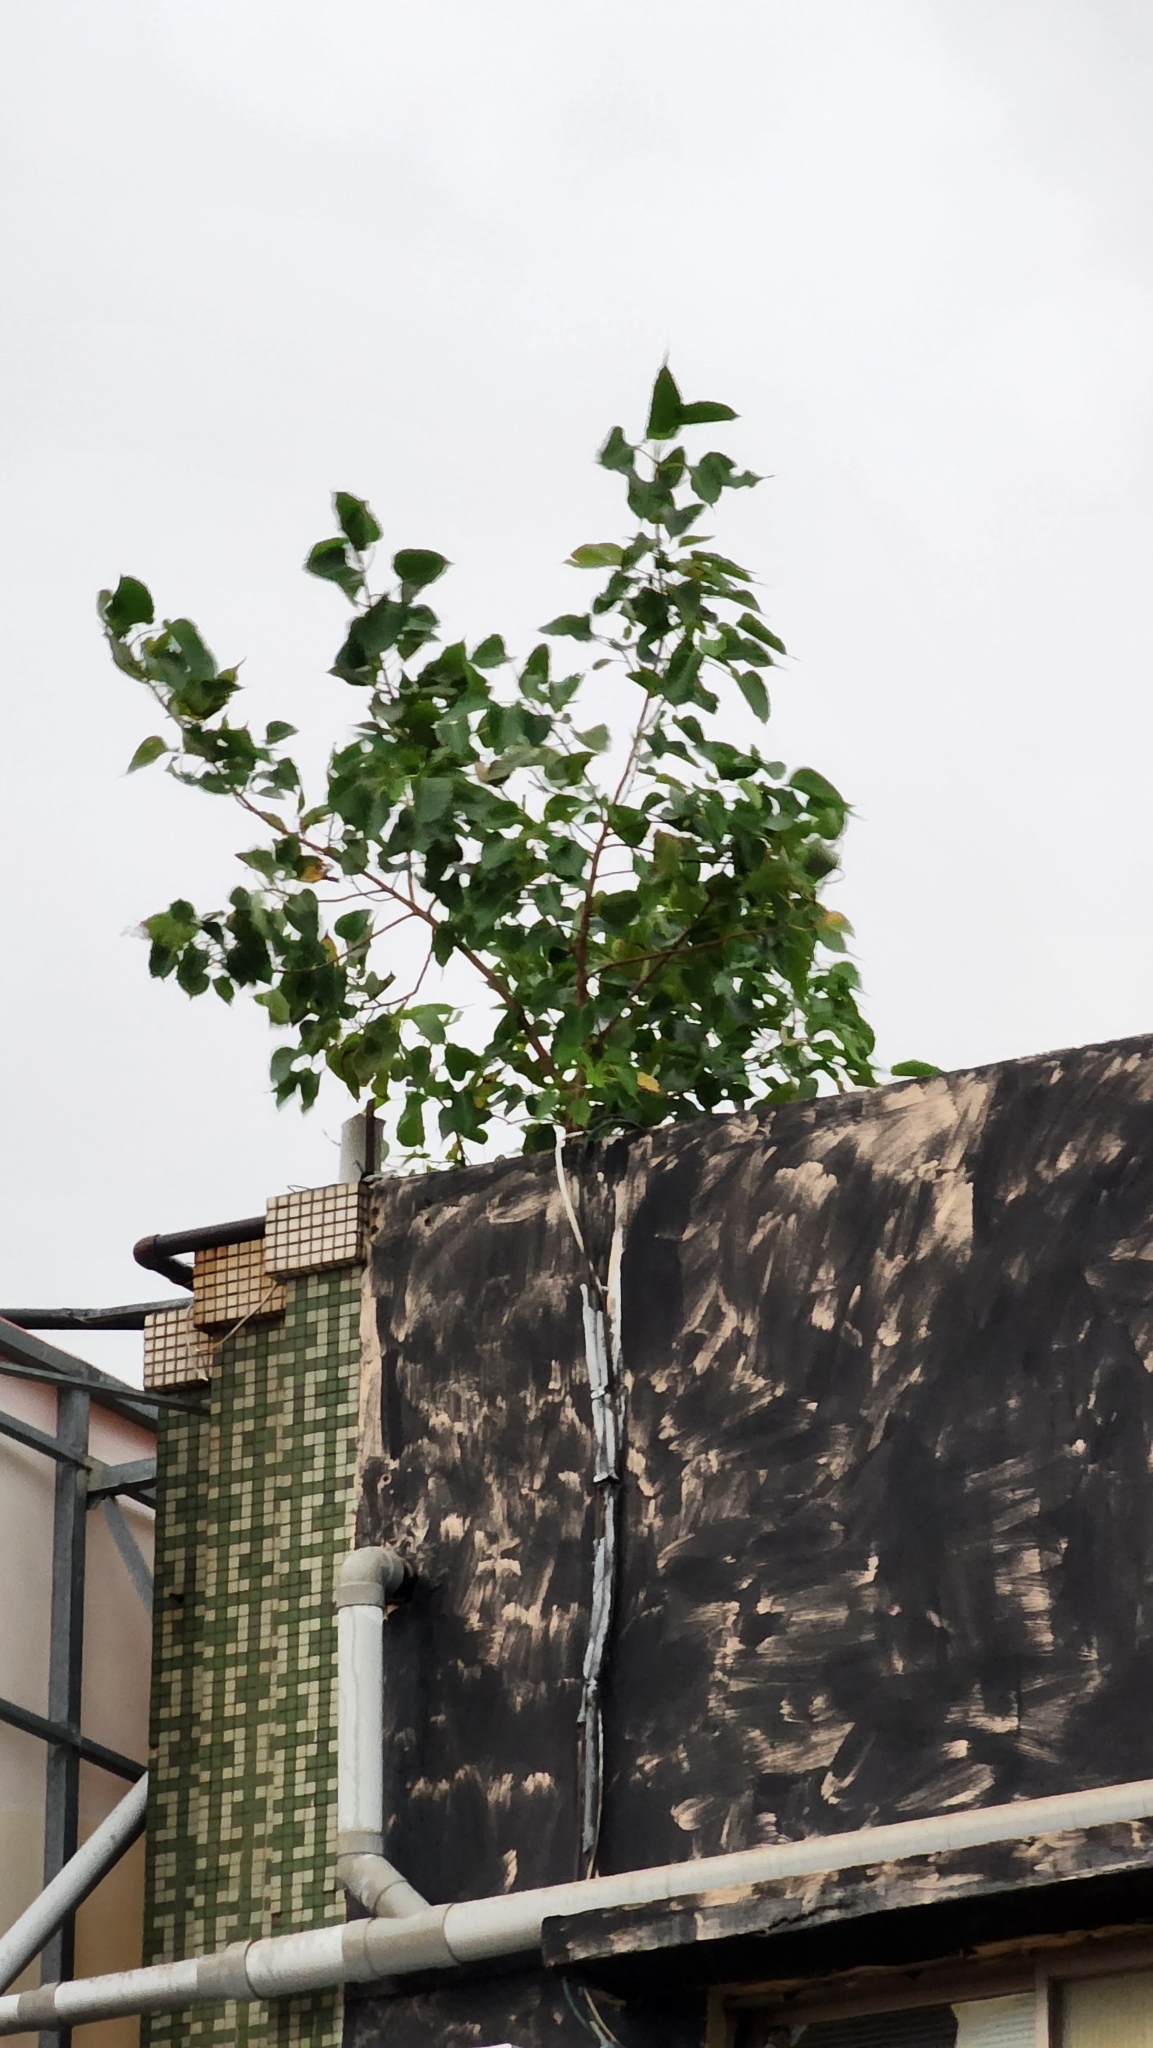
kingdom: Plantae
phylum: Tracheophyta
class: Magnoliopsida
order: Rosales
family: Moraceae
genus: Ficus
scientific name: Ficus religiosa
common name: Bodhi tree
